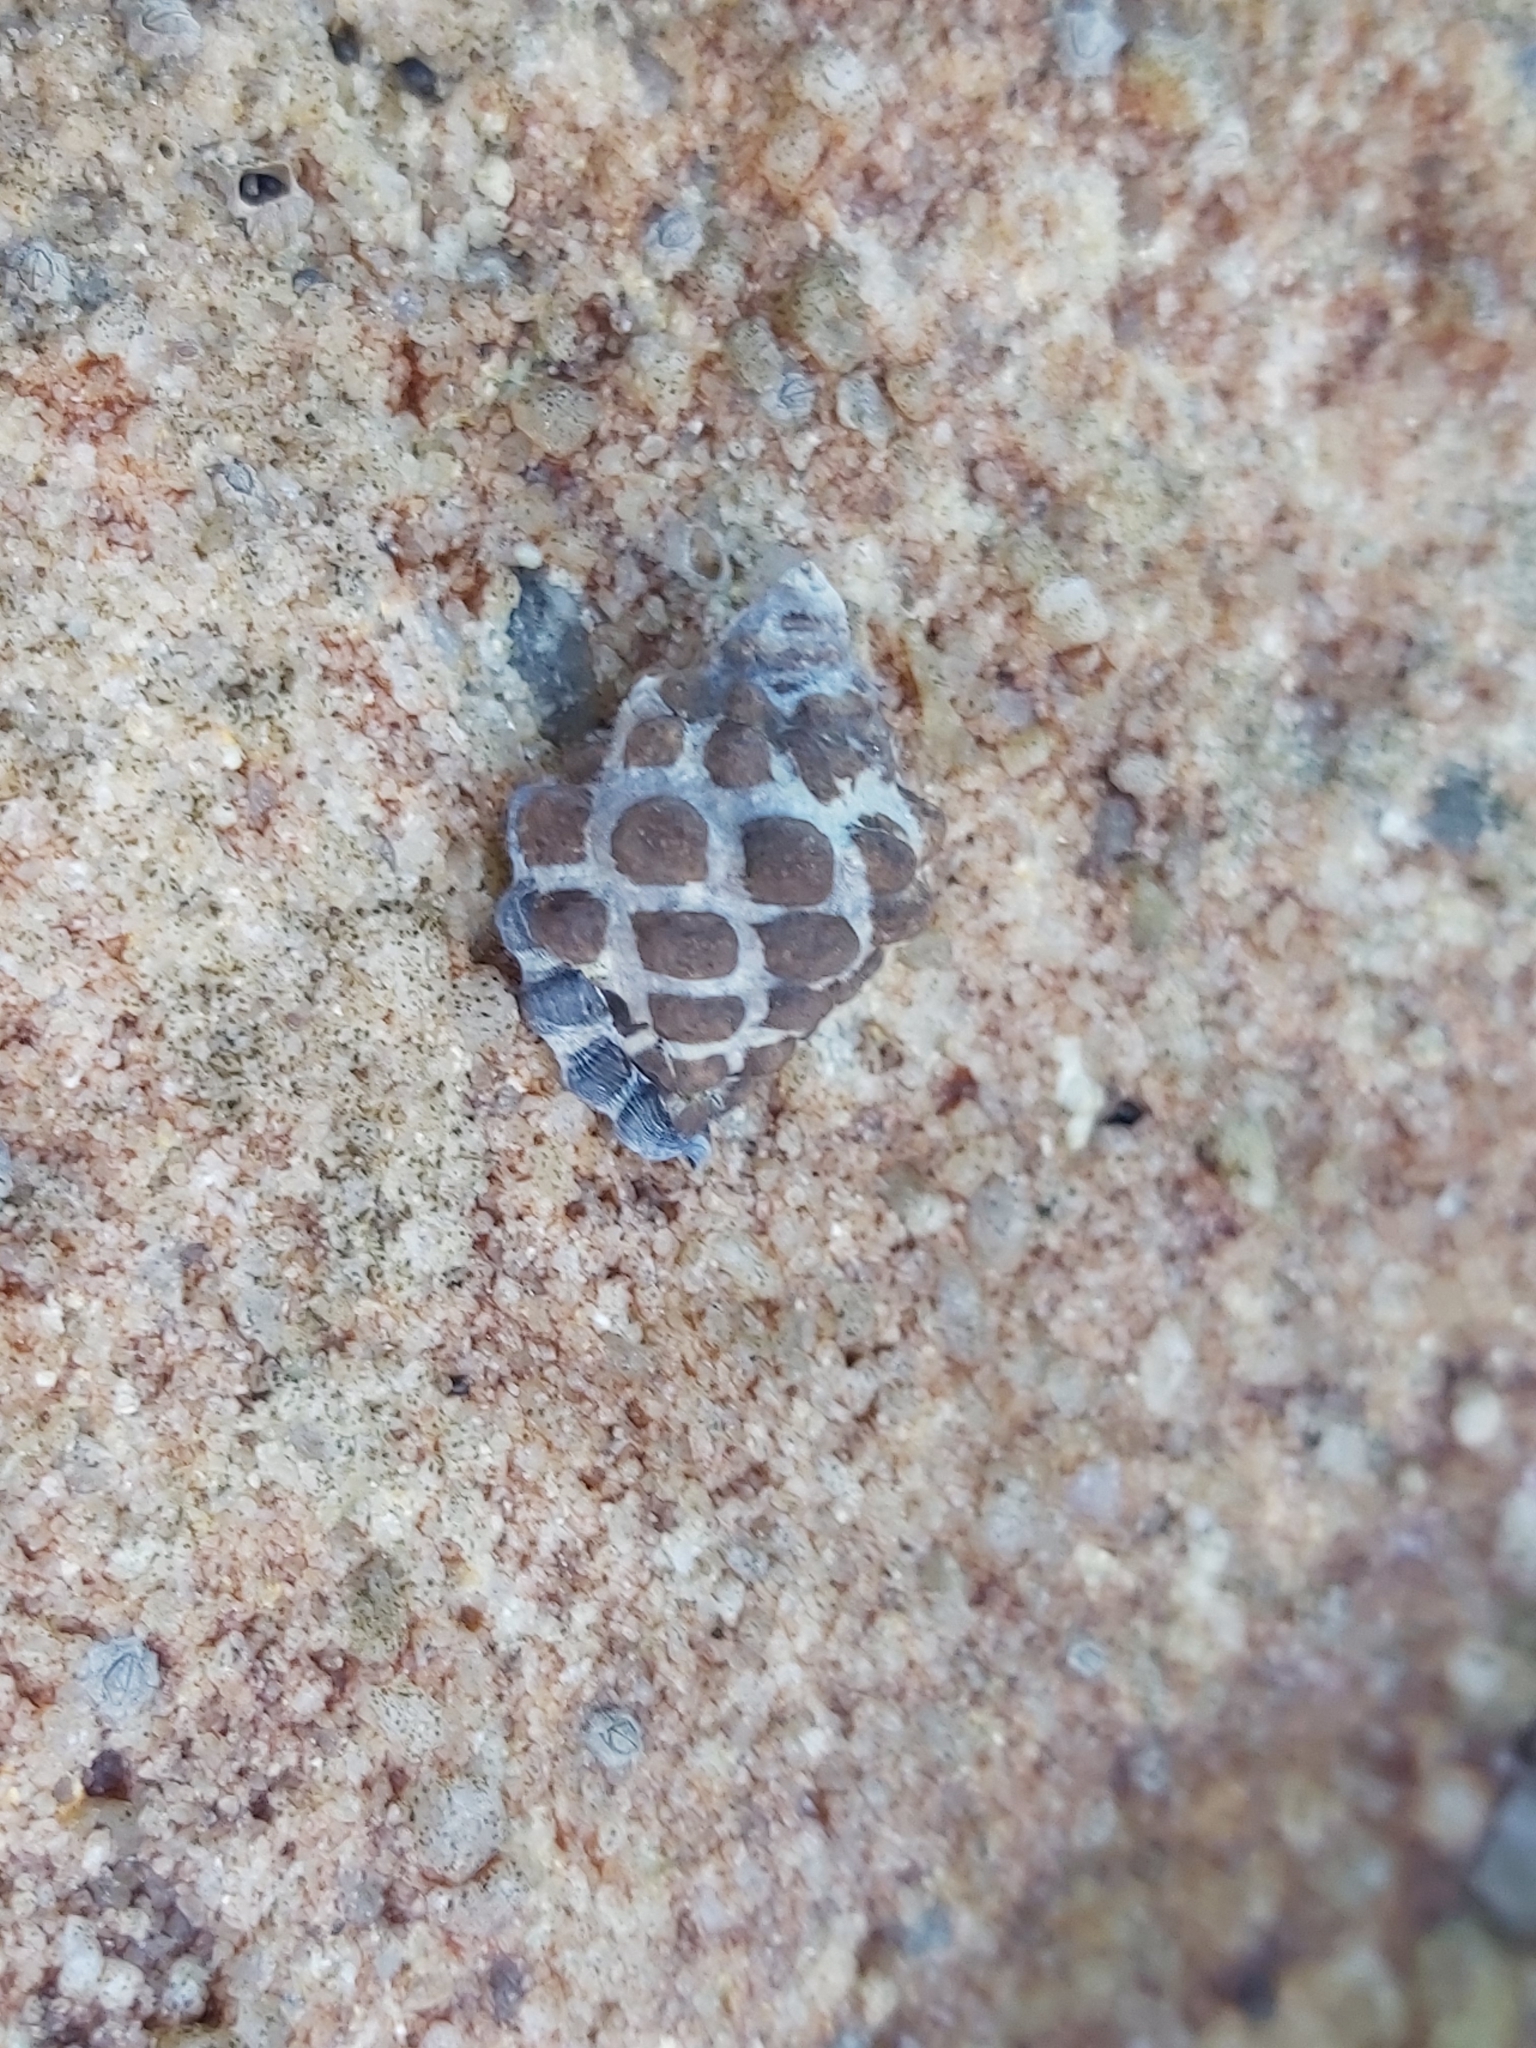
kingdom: Animalia
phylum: Mollusca
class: Gastropoda
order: Neogastropoda
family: Muricidae
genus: Tenguella
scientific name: Tenguella marginalba
